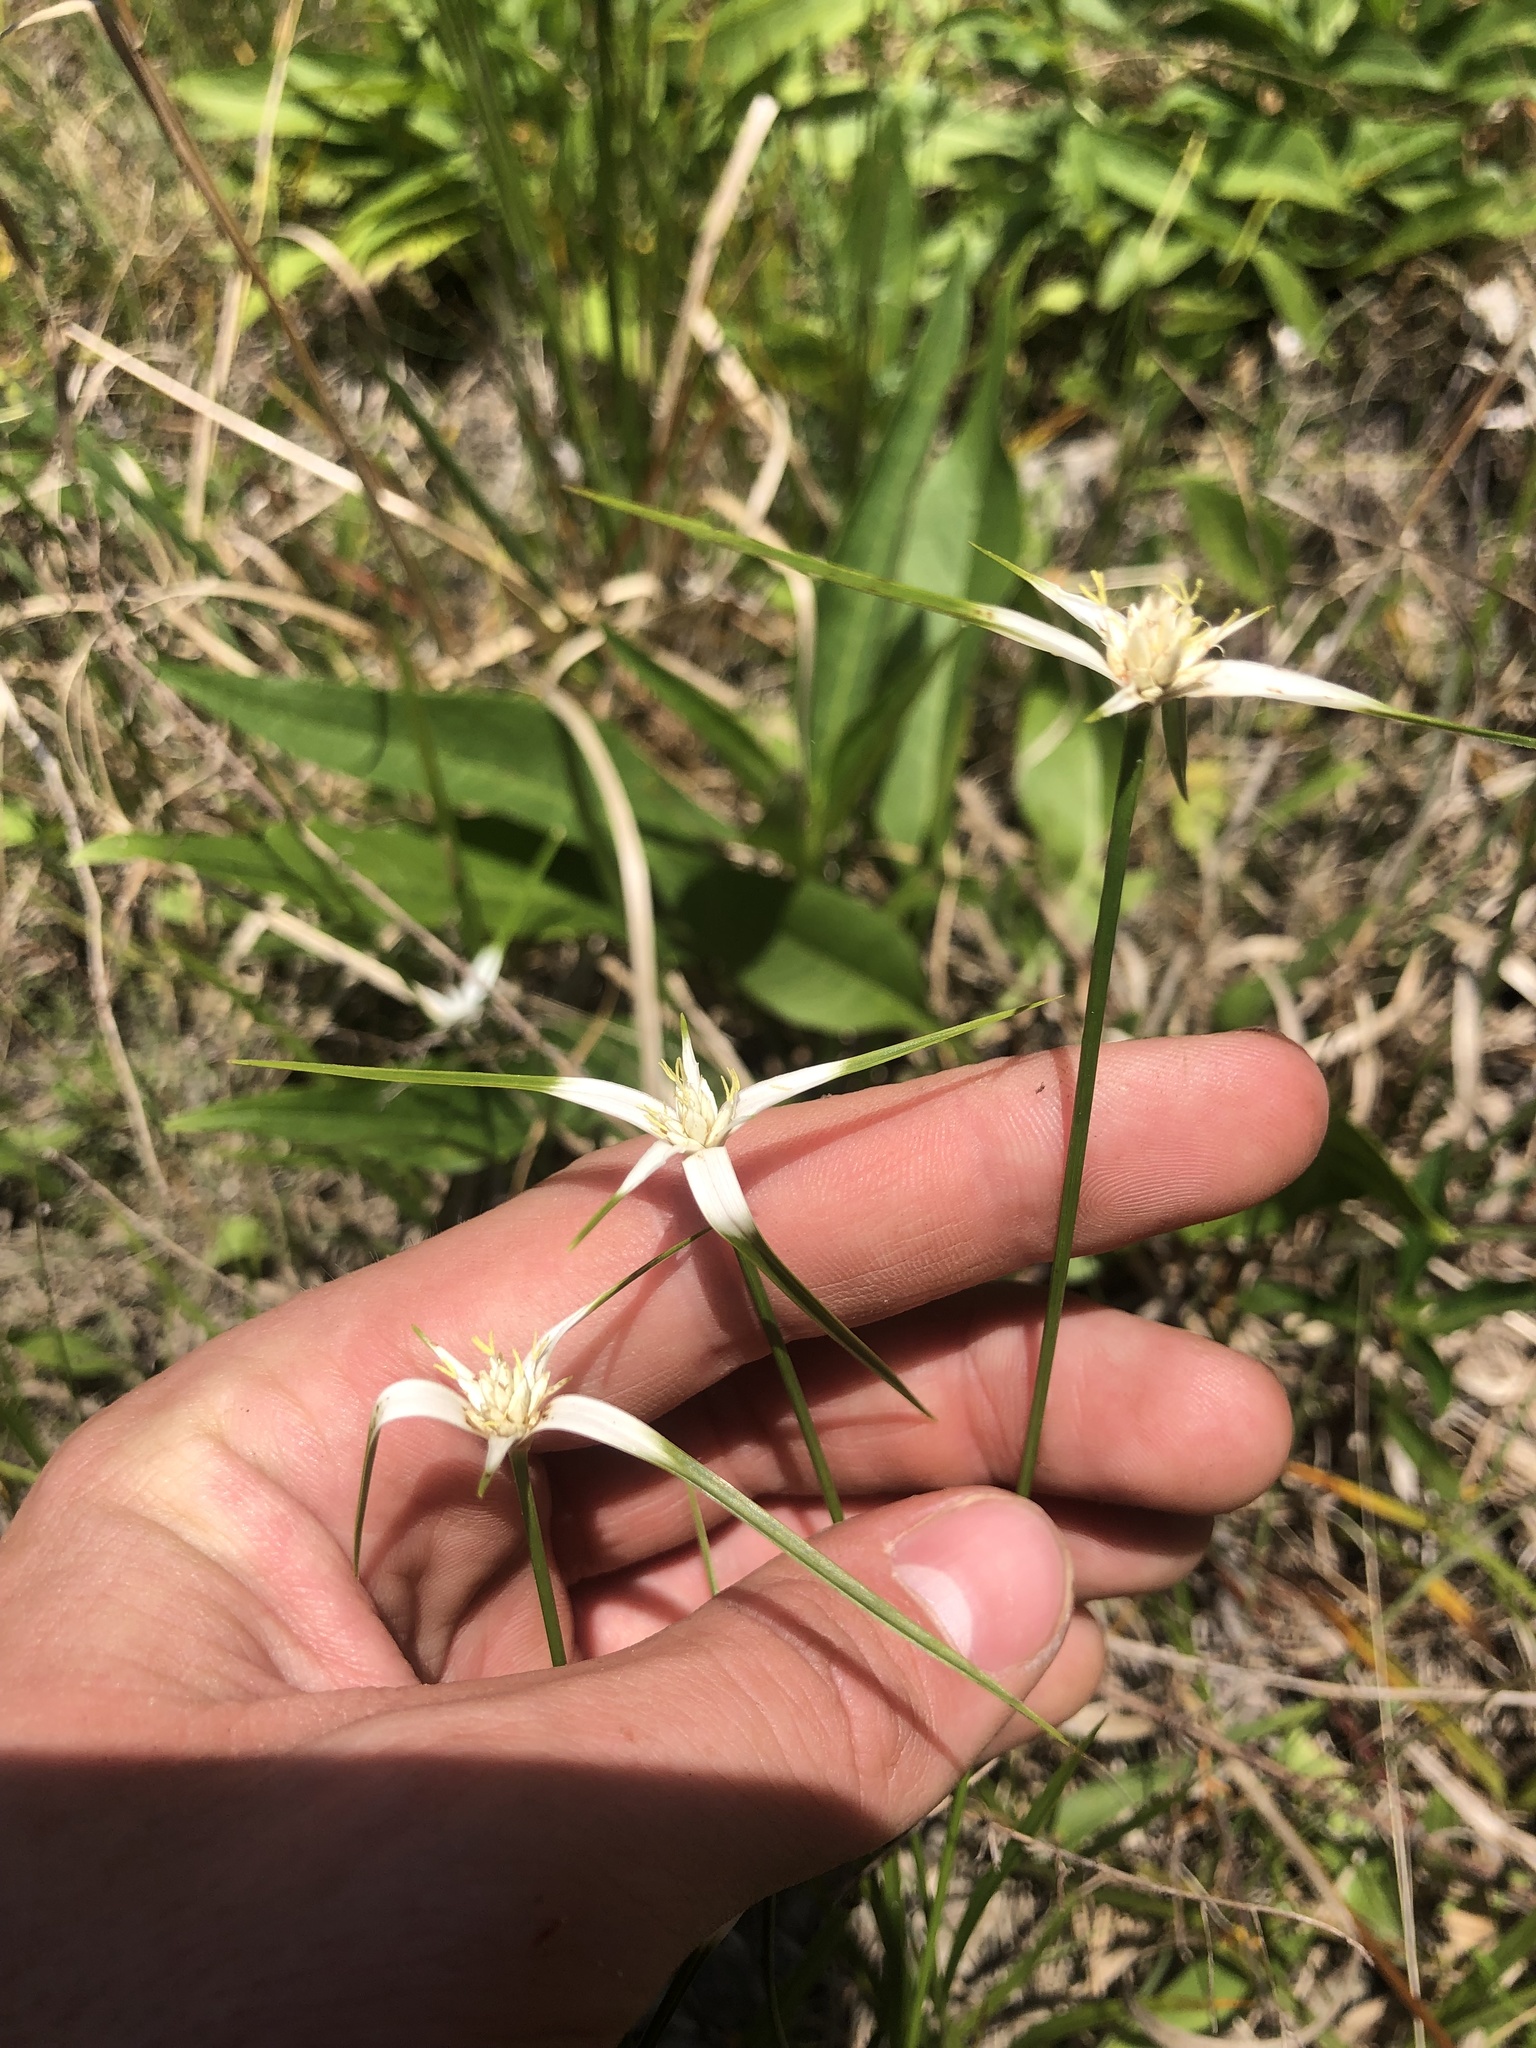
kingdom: Plantae
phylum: Tracheophyta
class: Liliopsida
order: Poales
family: Cyperaceae
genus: Rhynchospora
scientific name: Rhynchospora colorata
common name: Star sedge
